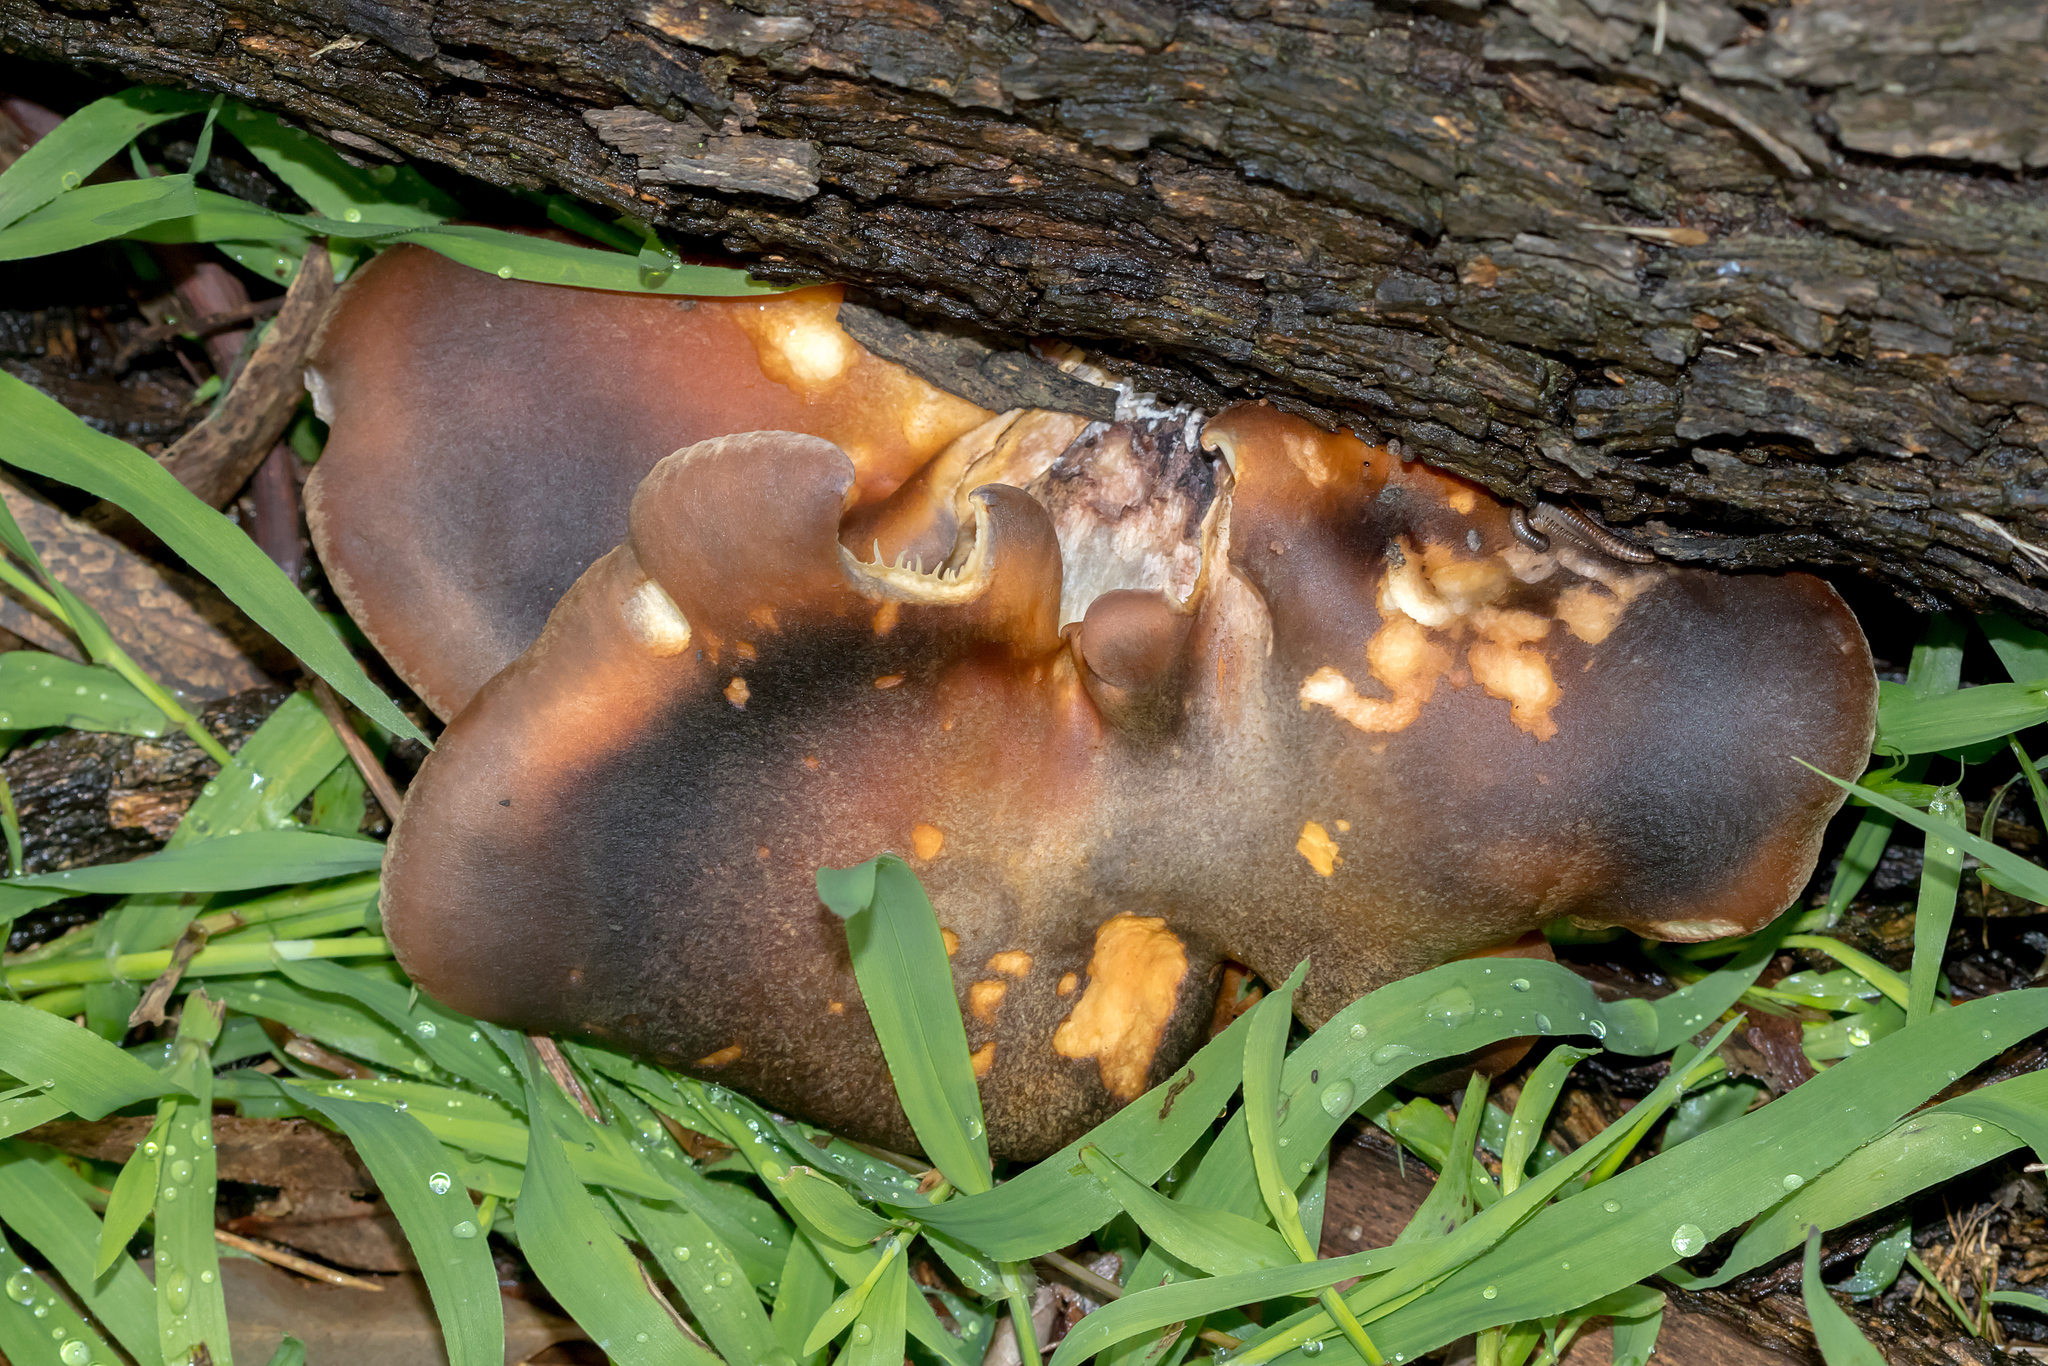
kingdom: Fungi
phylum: Basidiomycota
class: Agaricomycetes
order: Agaricales
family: Omphalotaceae
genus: Omphalotus
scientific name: Omphalotus nidiformis
